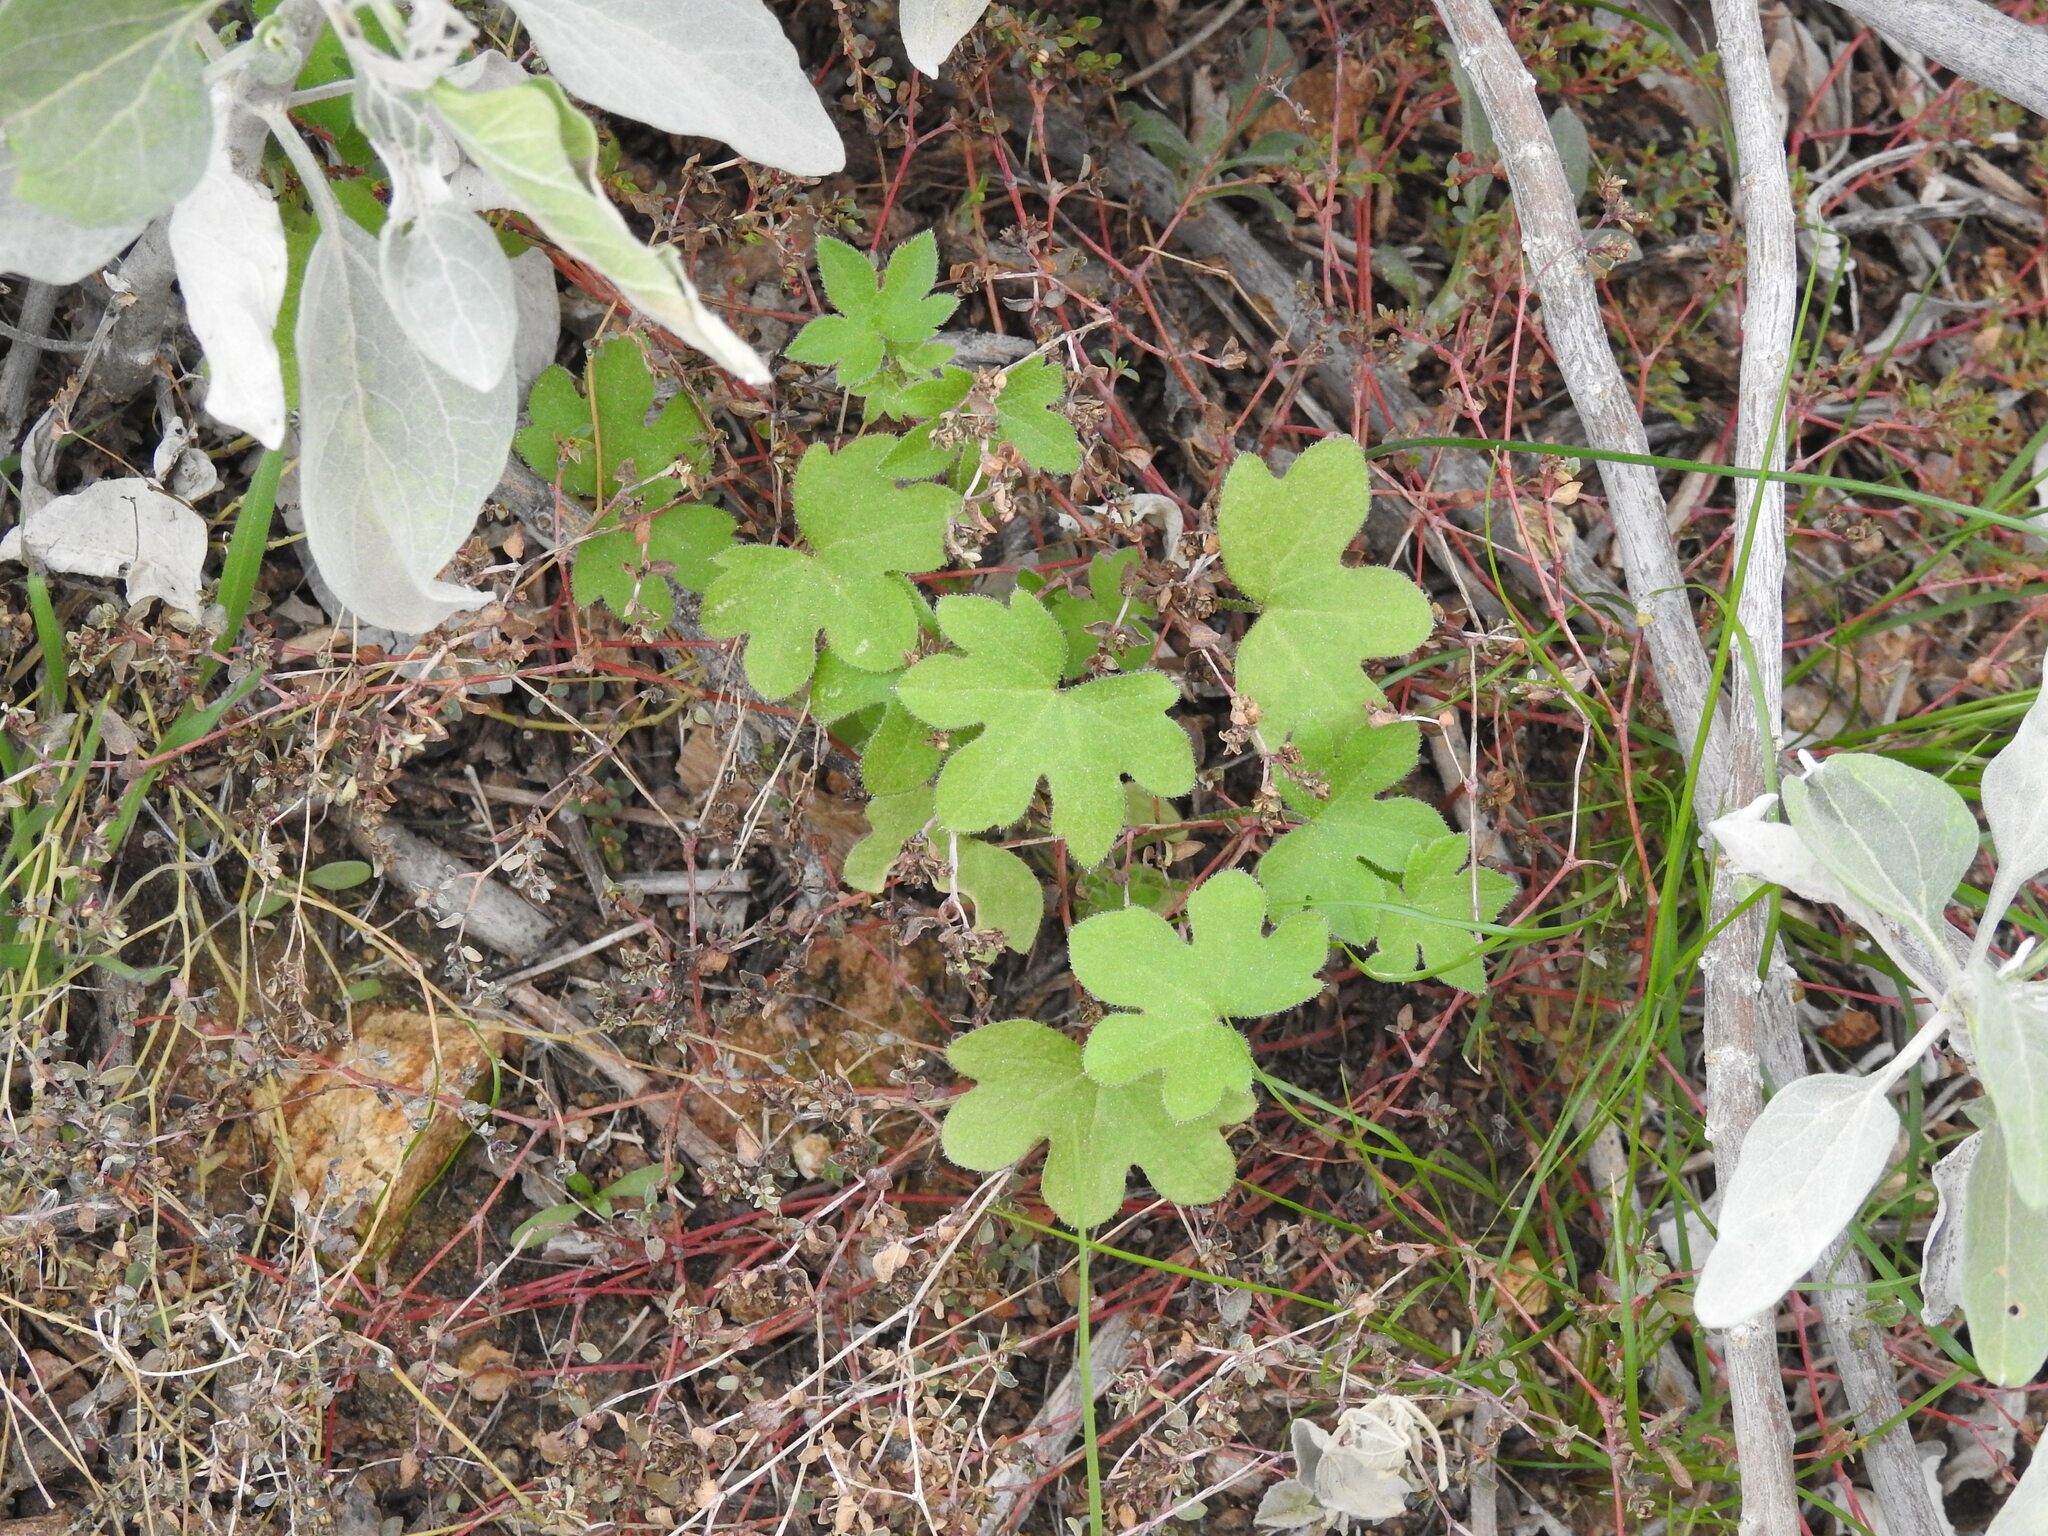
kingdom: Plantae
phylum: Tracheophyta
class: Magnoliopsida
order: Apiales
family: Apiaceae
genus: Bowlesia
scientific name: Bowlesia incana
